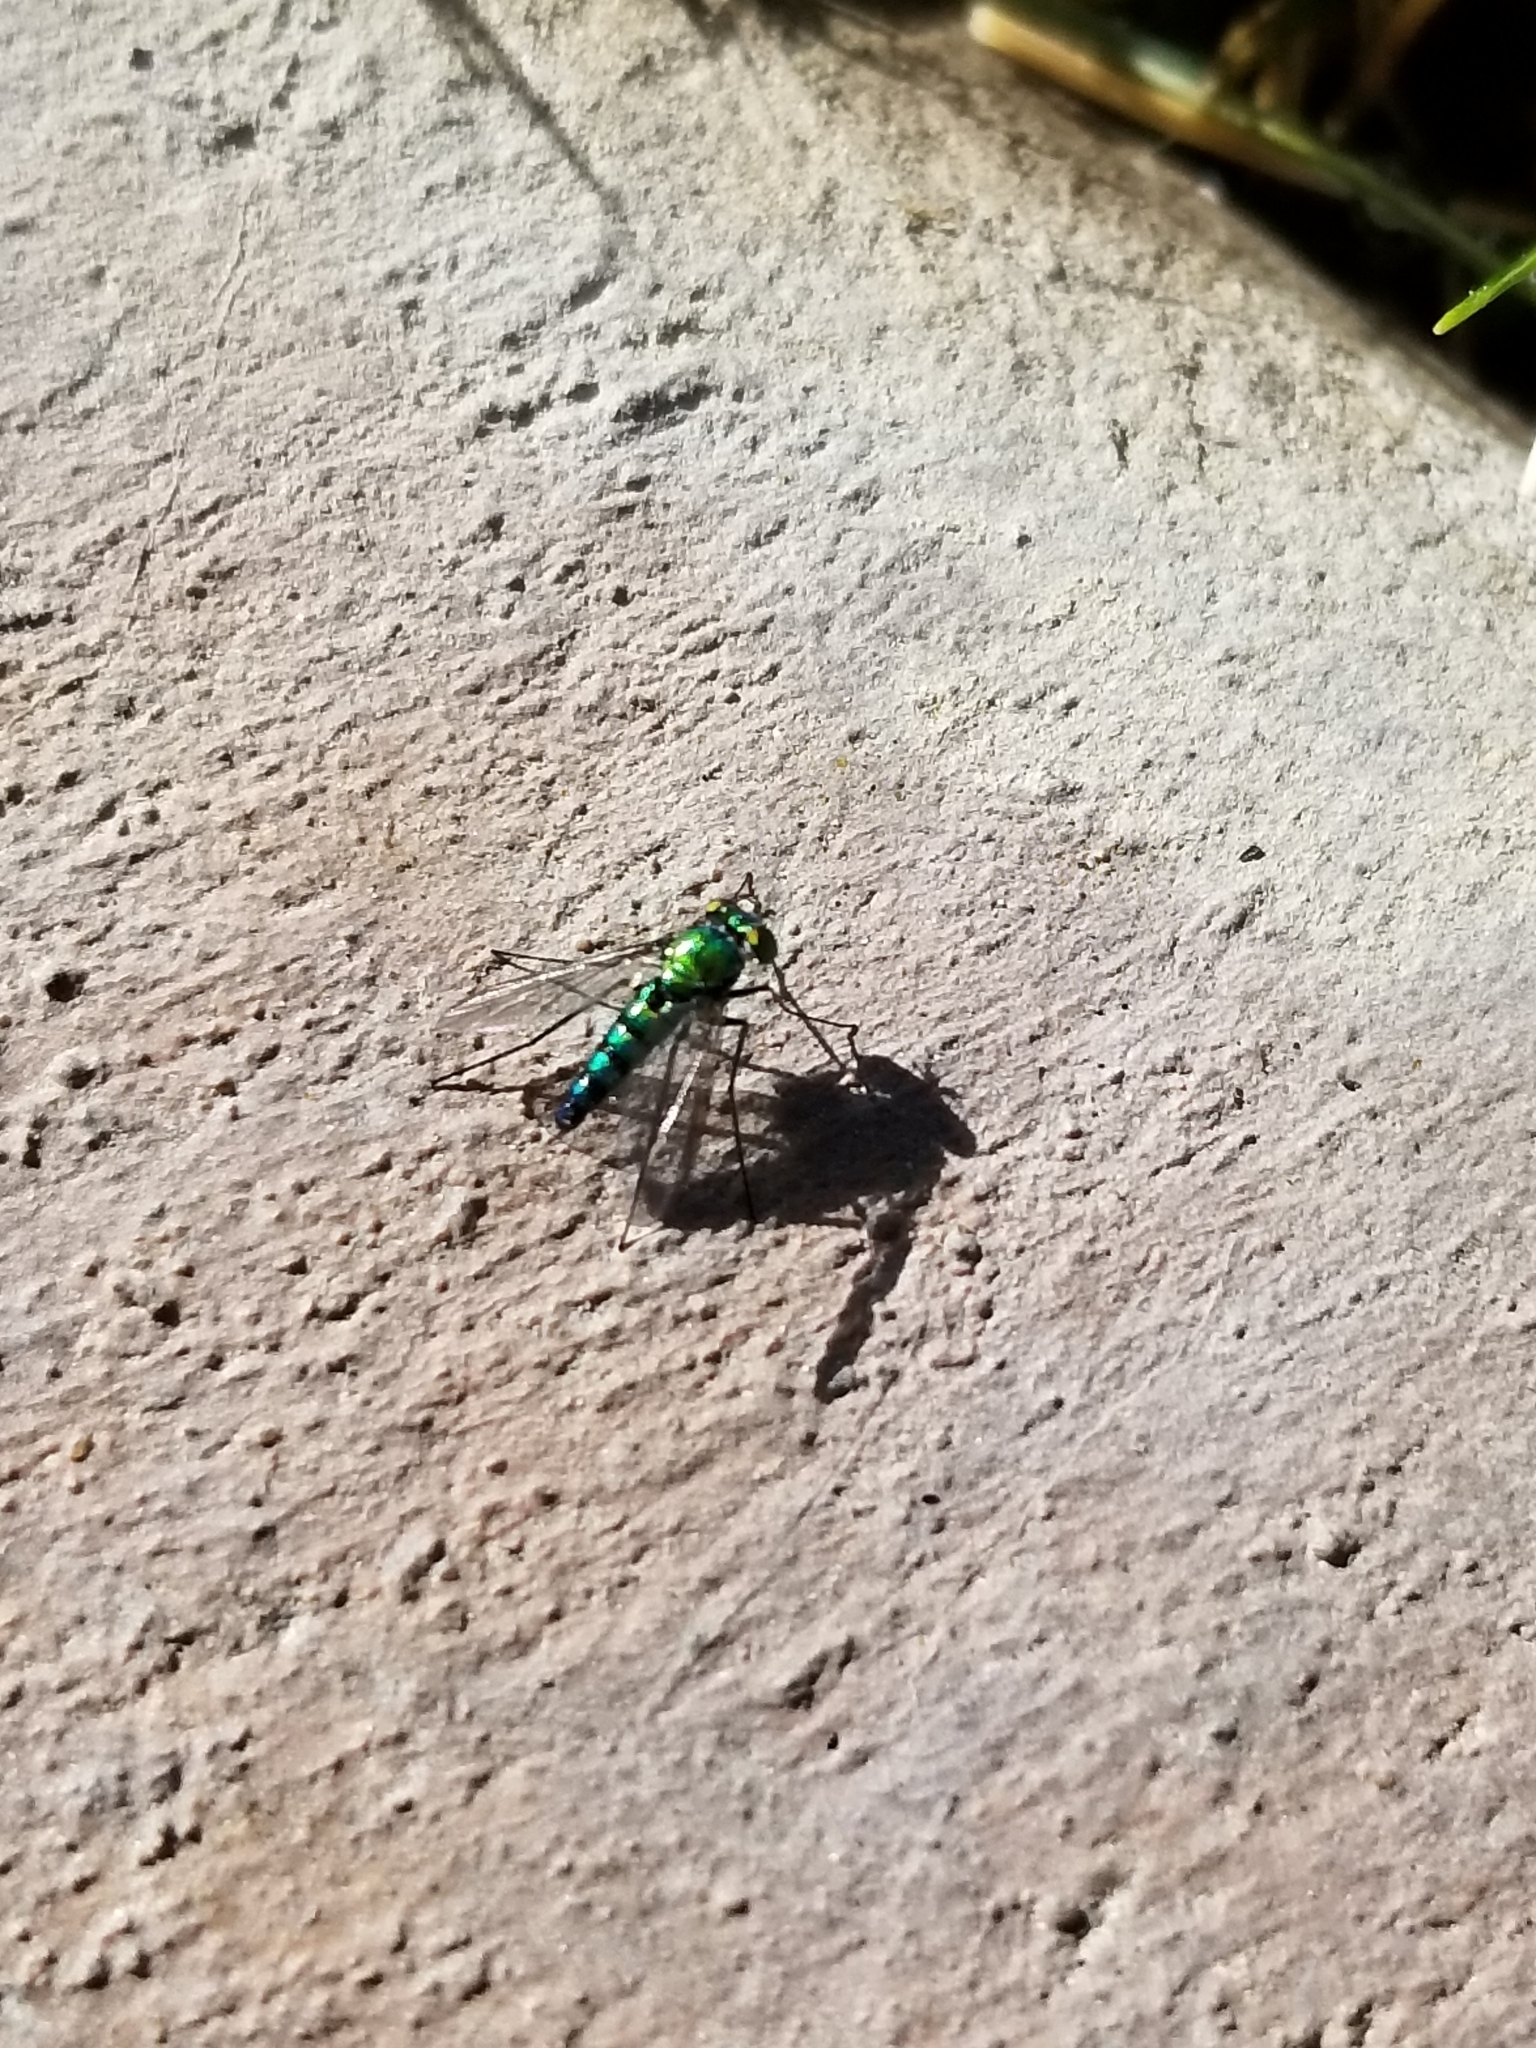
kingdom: Animalia
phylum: Arthropoda
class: Insecta
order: Diptera
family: Dolichopodidae
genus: Condylostylus
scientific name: Condylostylus longicornis
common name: Long-legged fly
